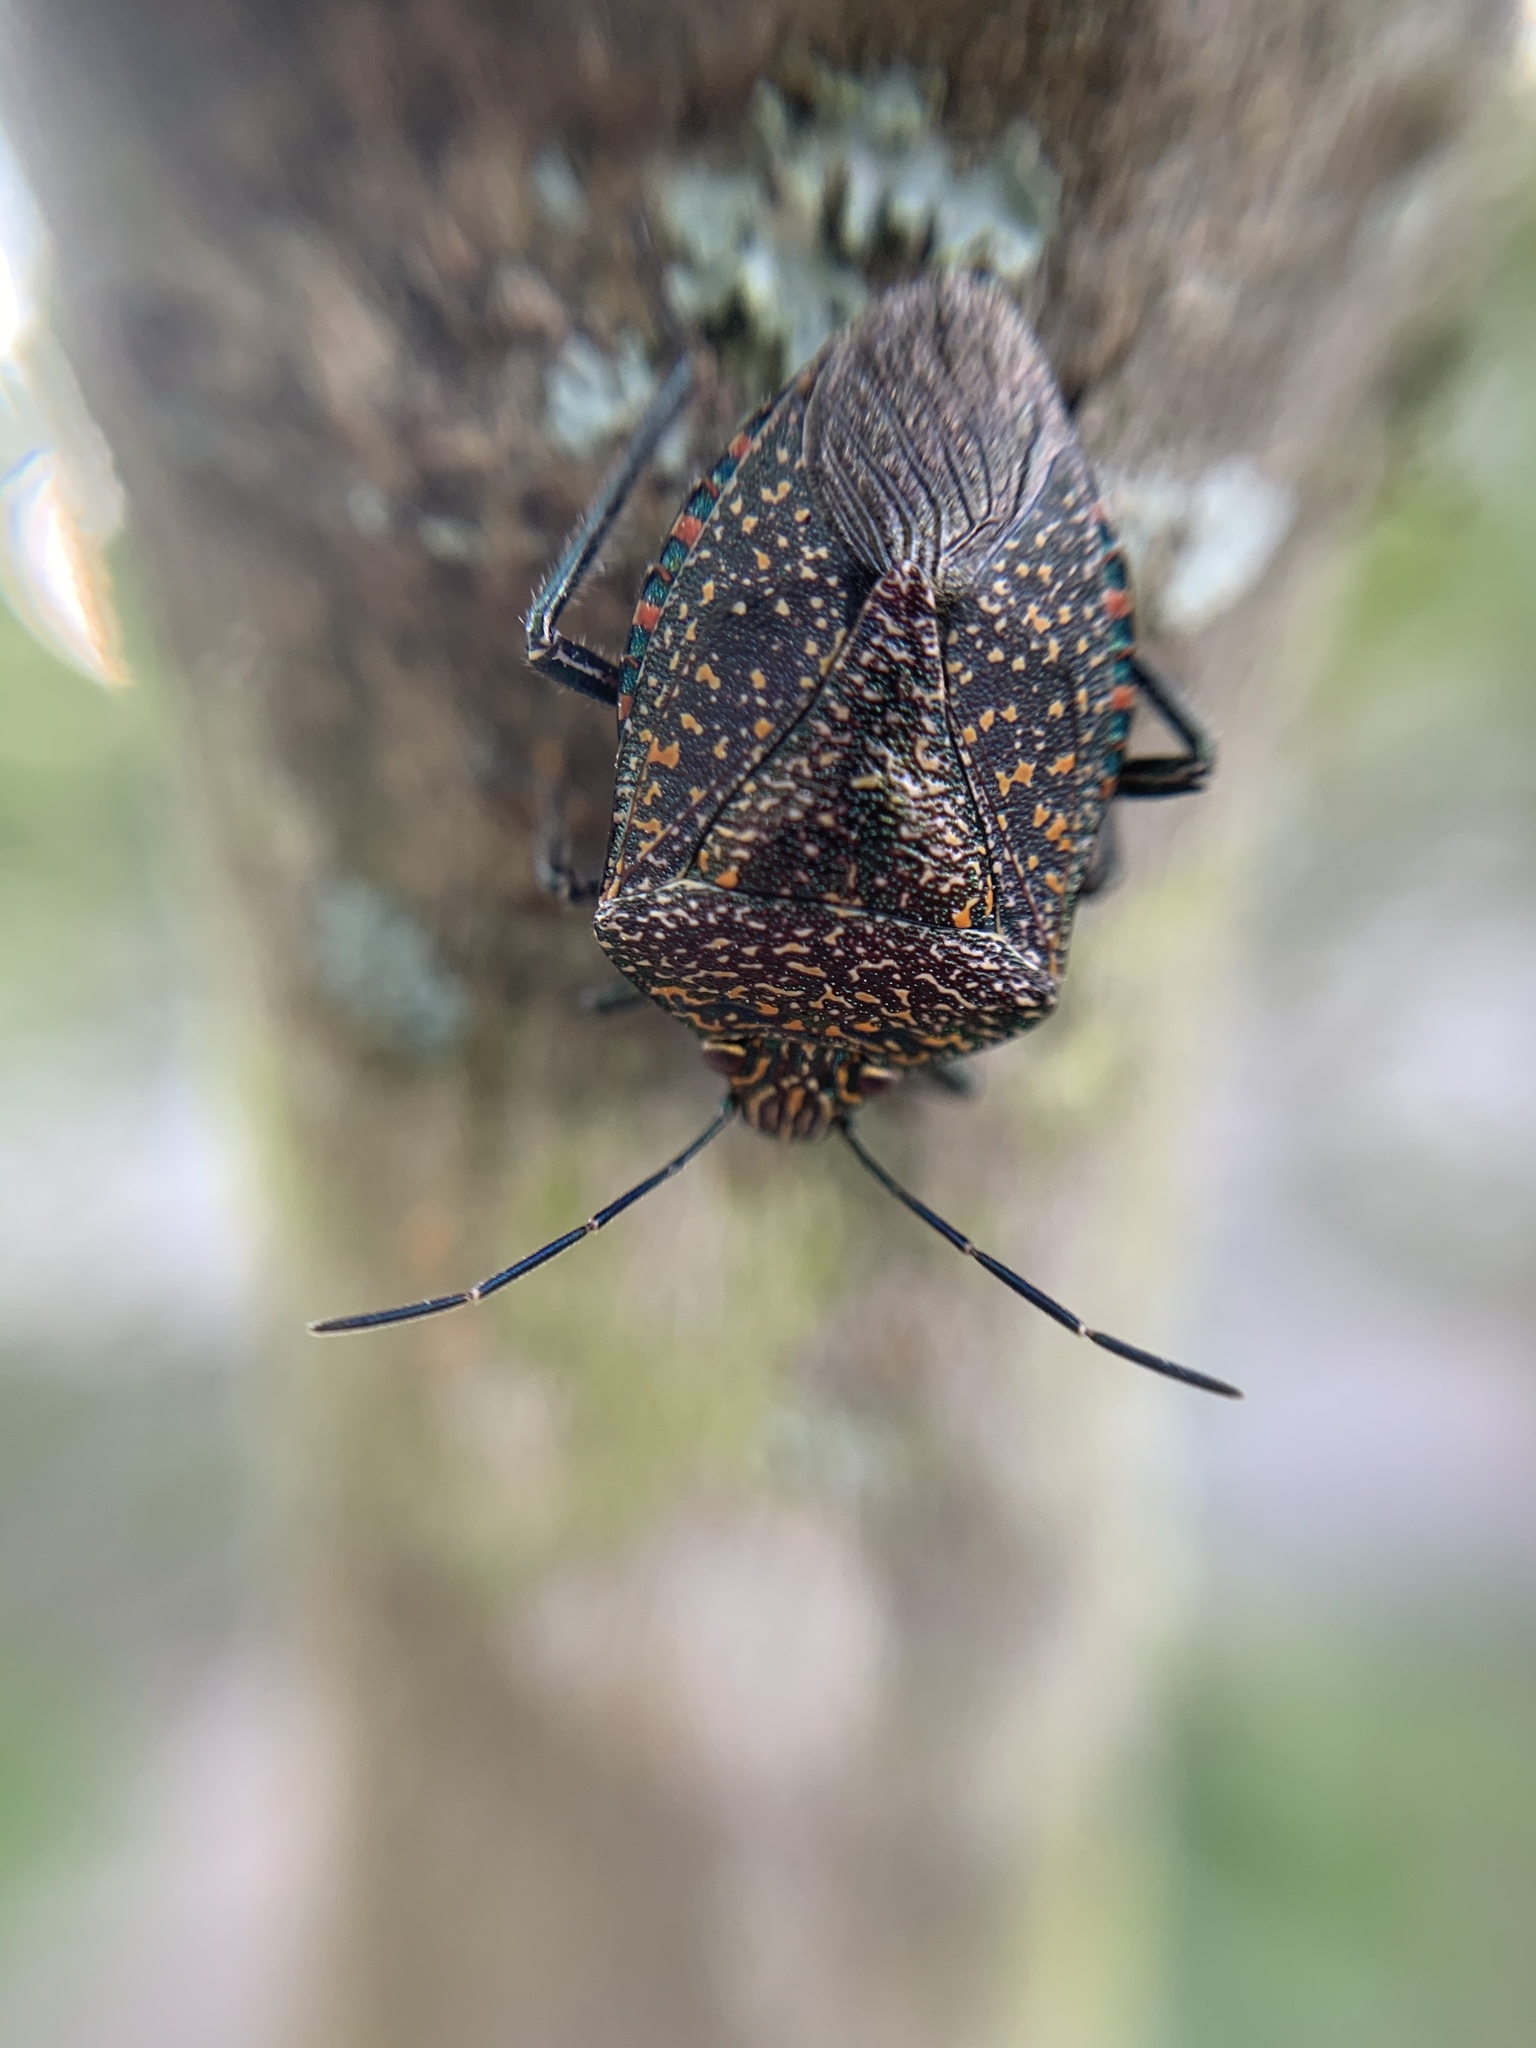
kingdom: Animalia
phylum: Arthropoda
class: Insecta
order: Hemiptera
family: Pentatomidae
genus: Pellaea
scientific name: Pellaea stictica
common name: Stink bug
